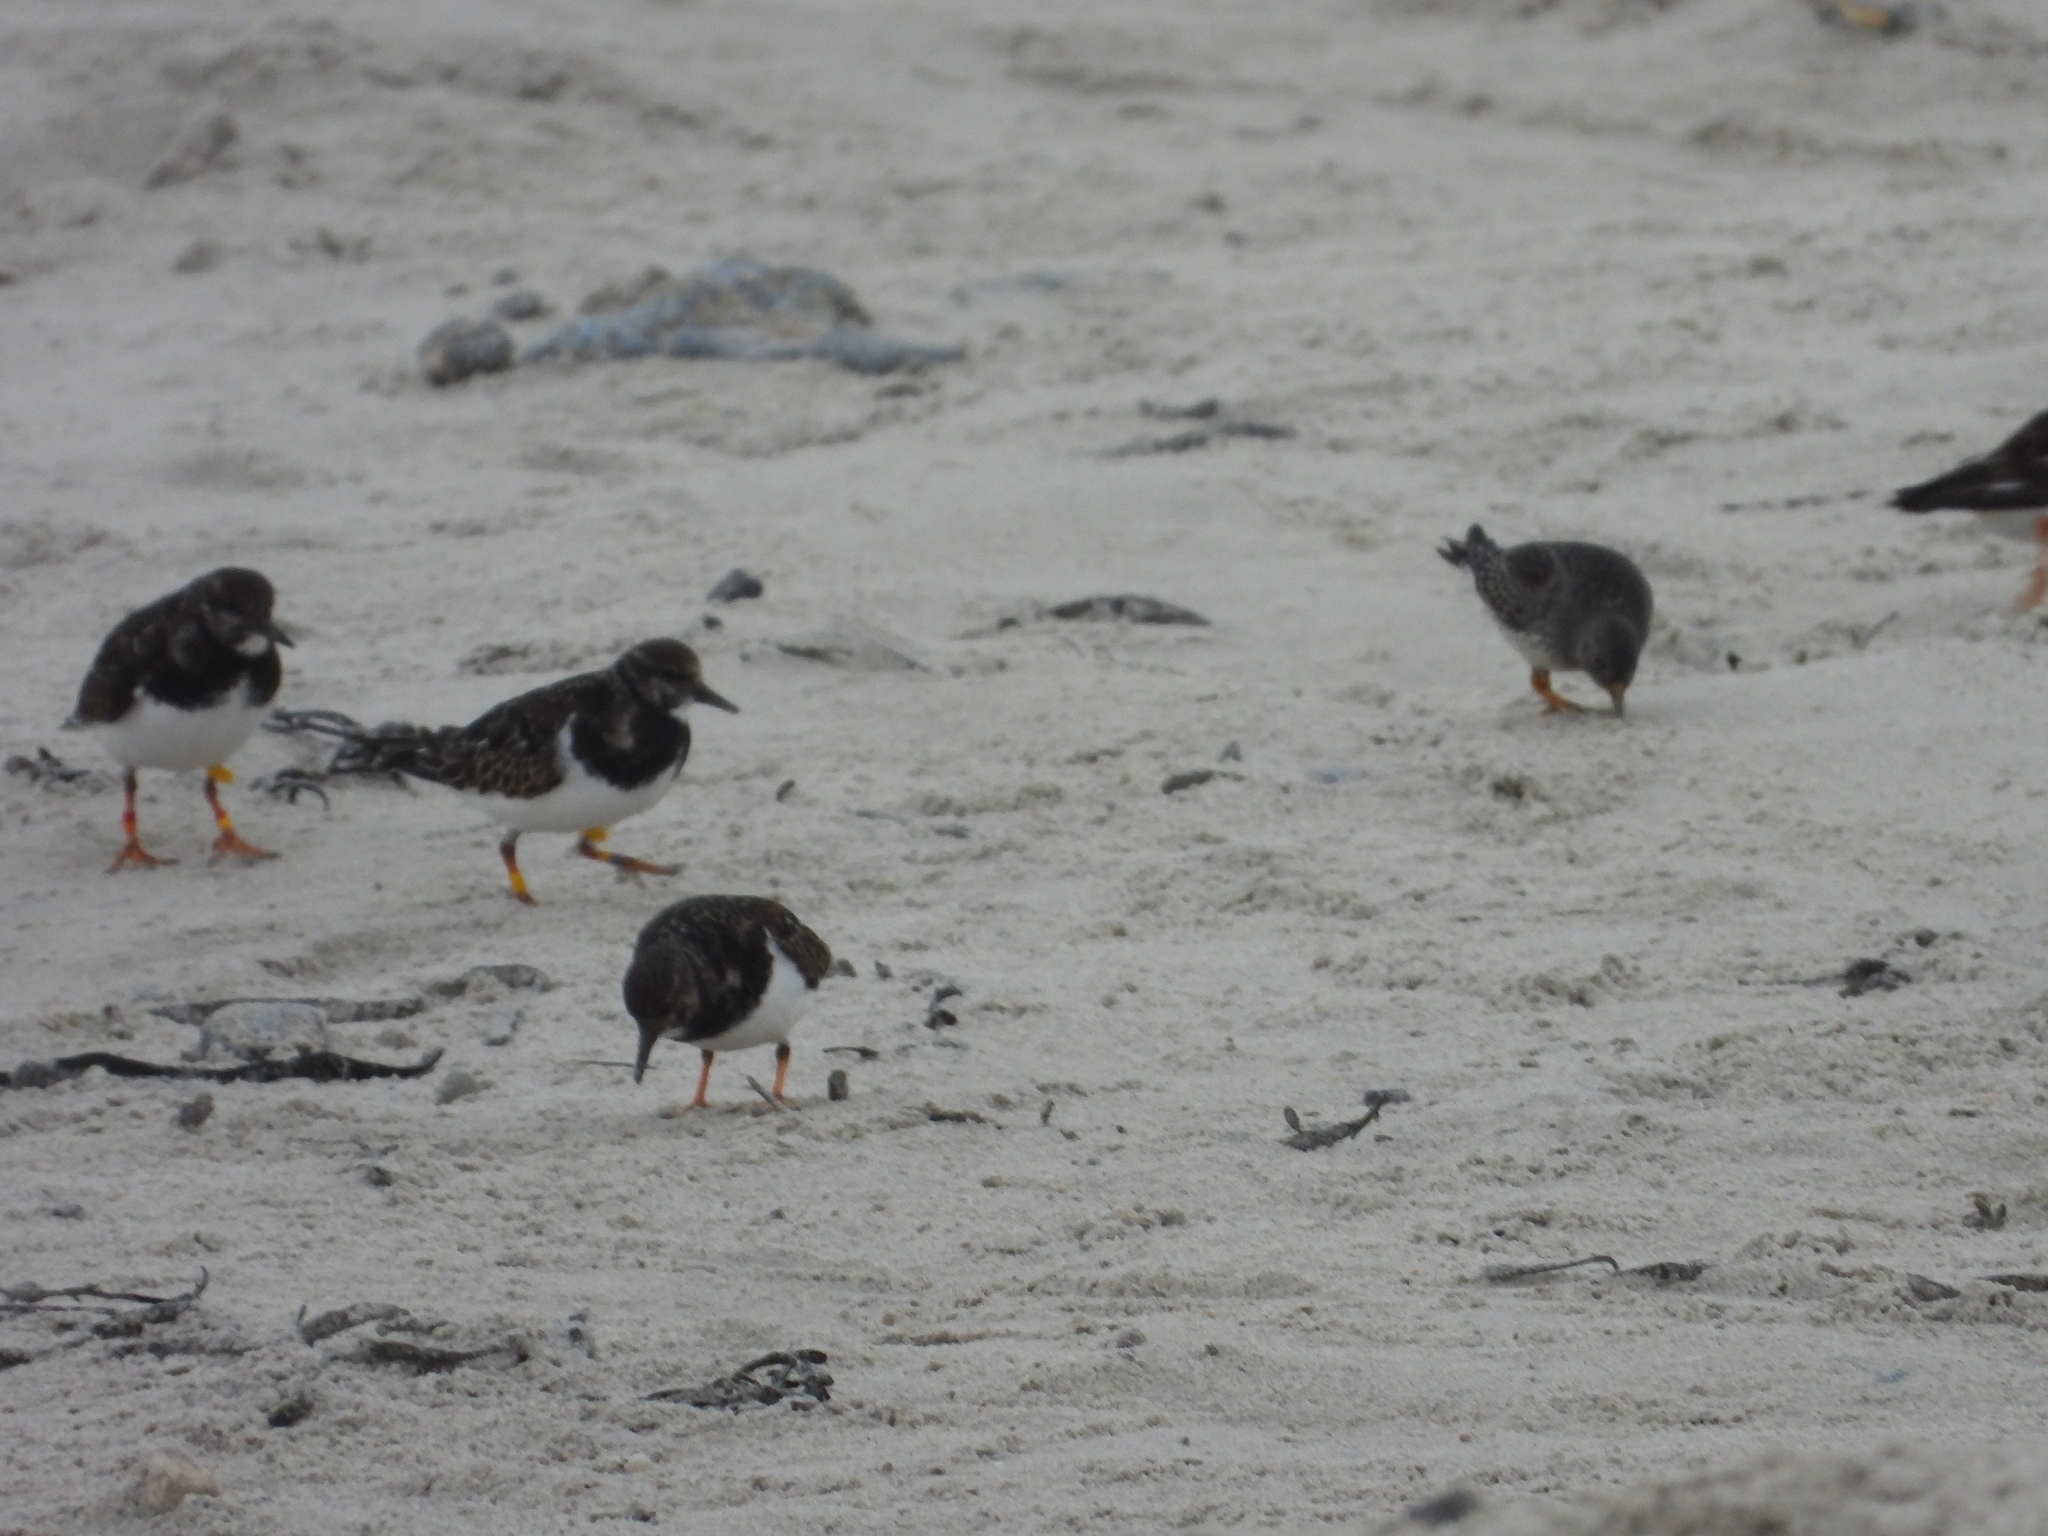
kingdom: Animalia
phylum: Chordata
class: Aves
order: Charadriiformes
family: Scolopacidae
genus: Arenaria
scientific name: Arenaria interpres
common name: Ruddy turnstone
